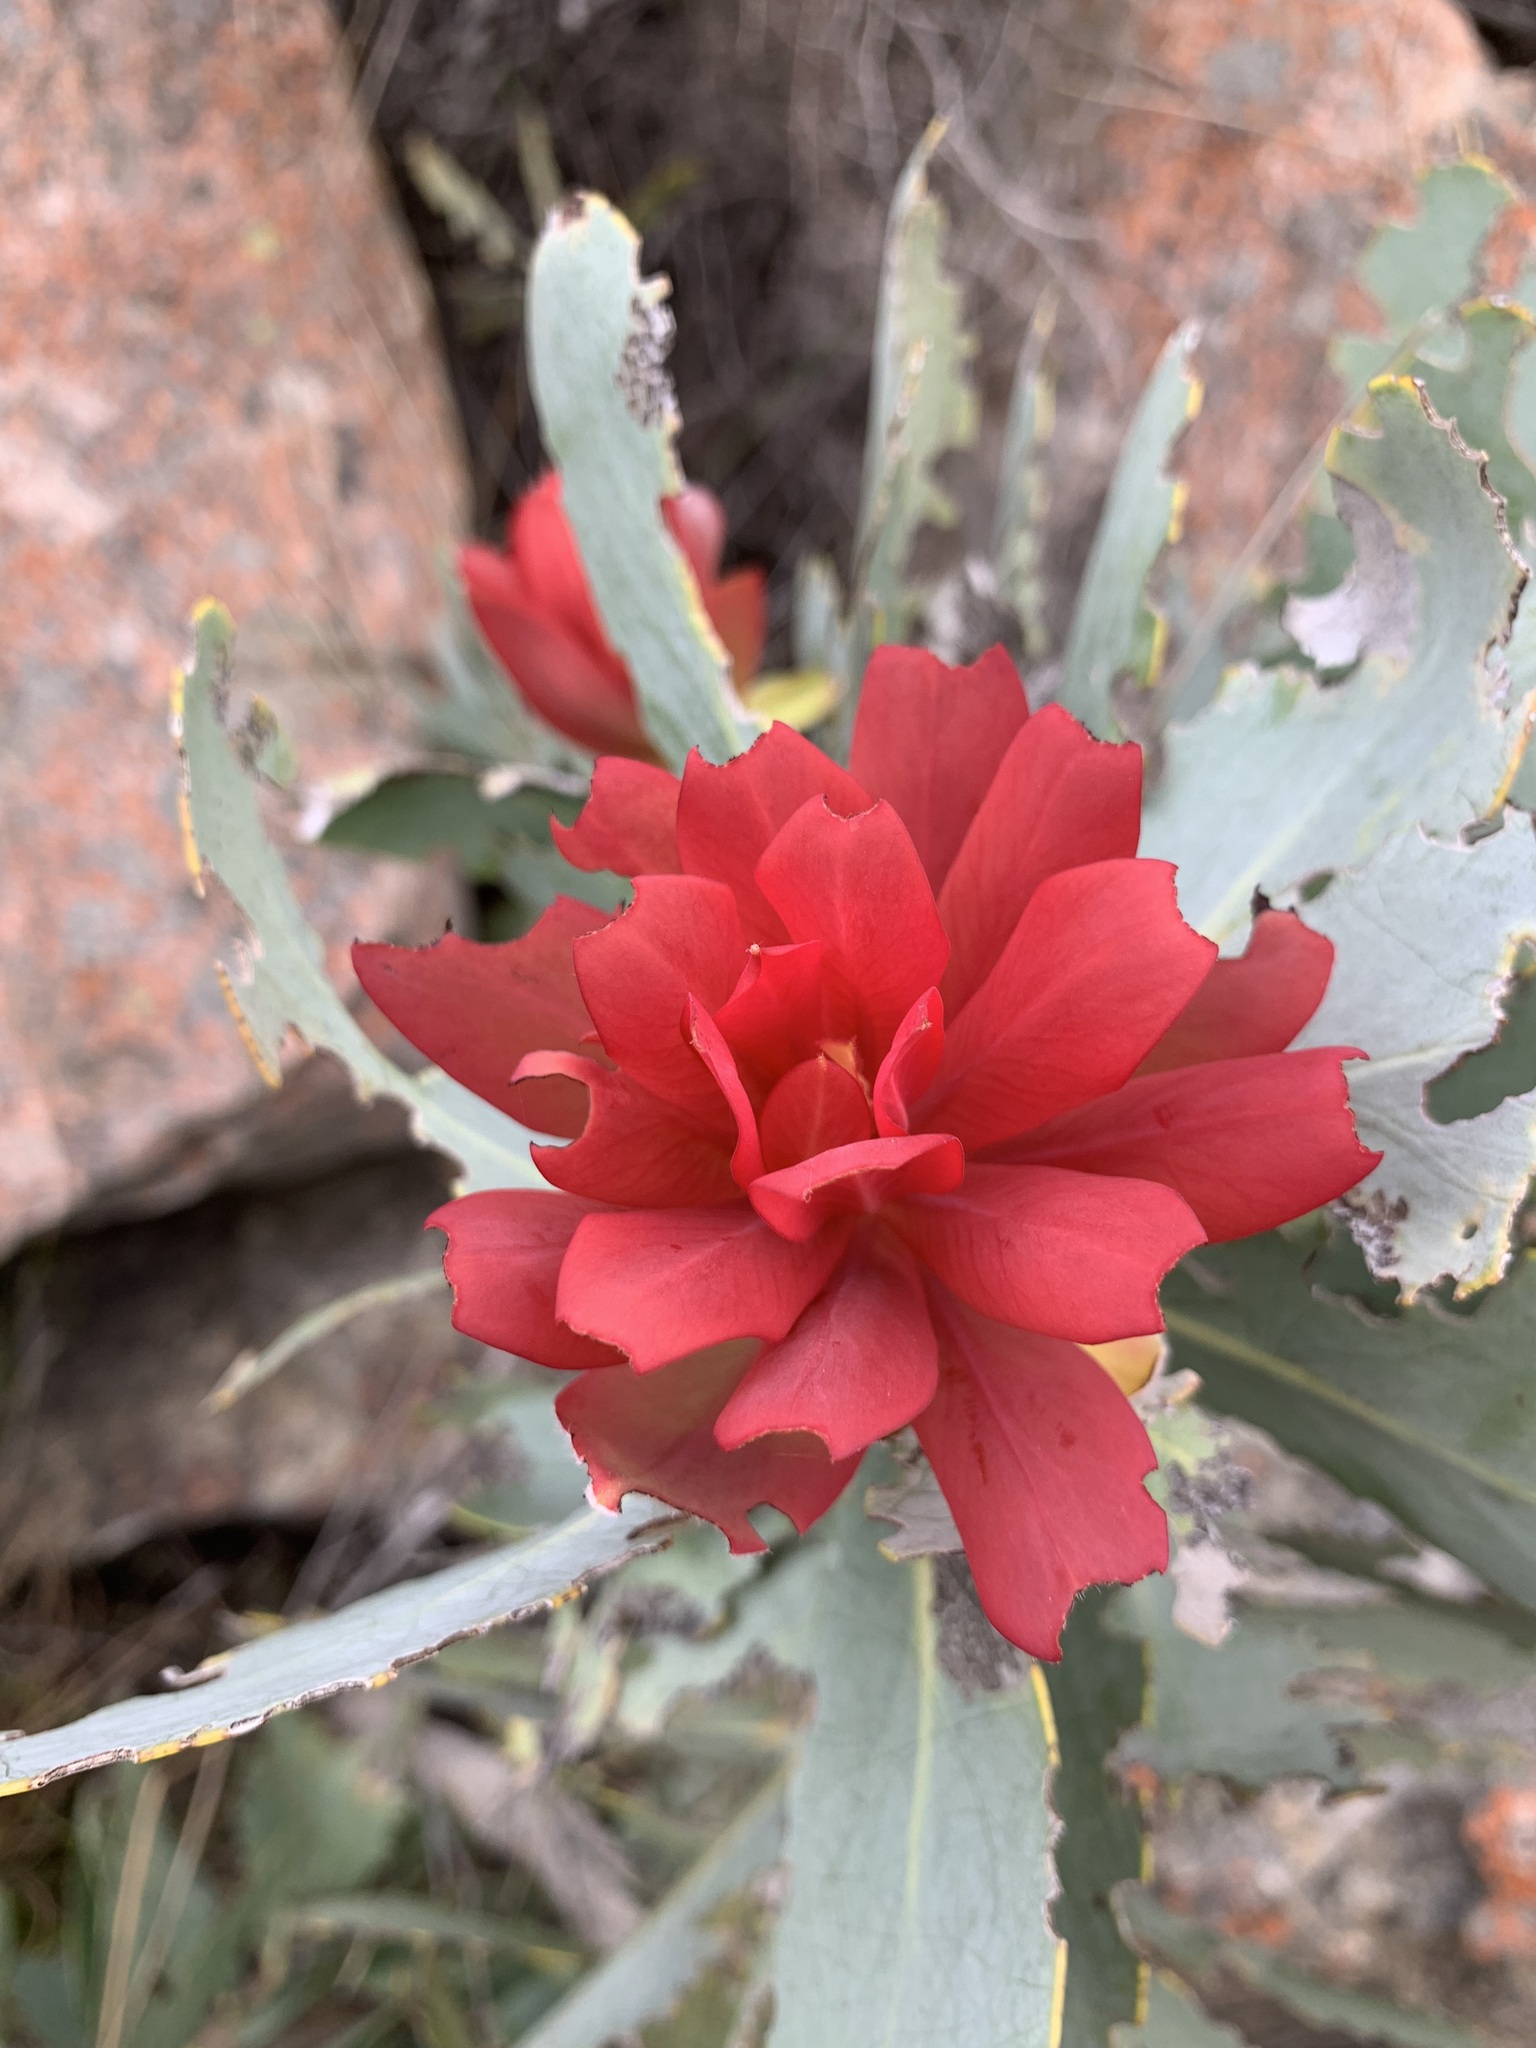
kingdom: Plantae
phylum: Tracheophyta
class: Magnoliopsida
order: Proteales
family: Proteaceae
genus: Protea
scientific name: Protea nitida
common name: Tree protea
